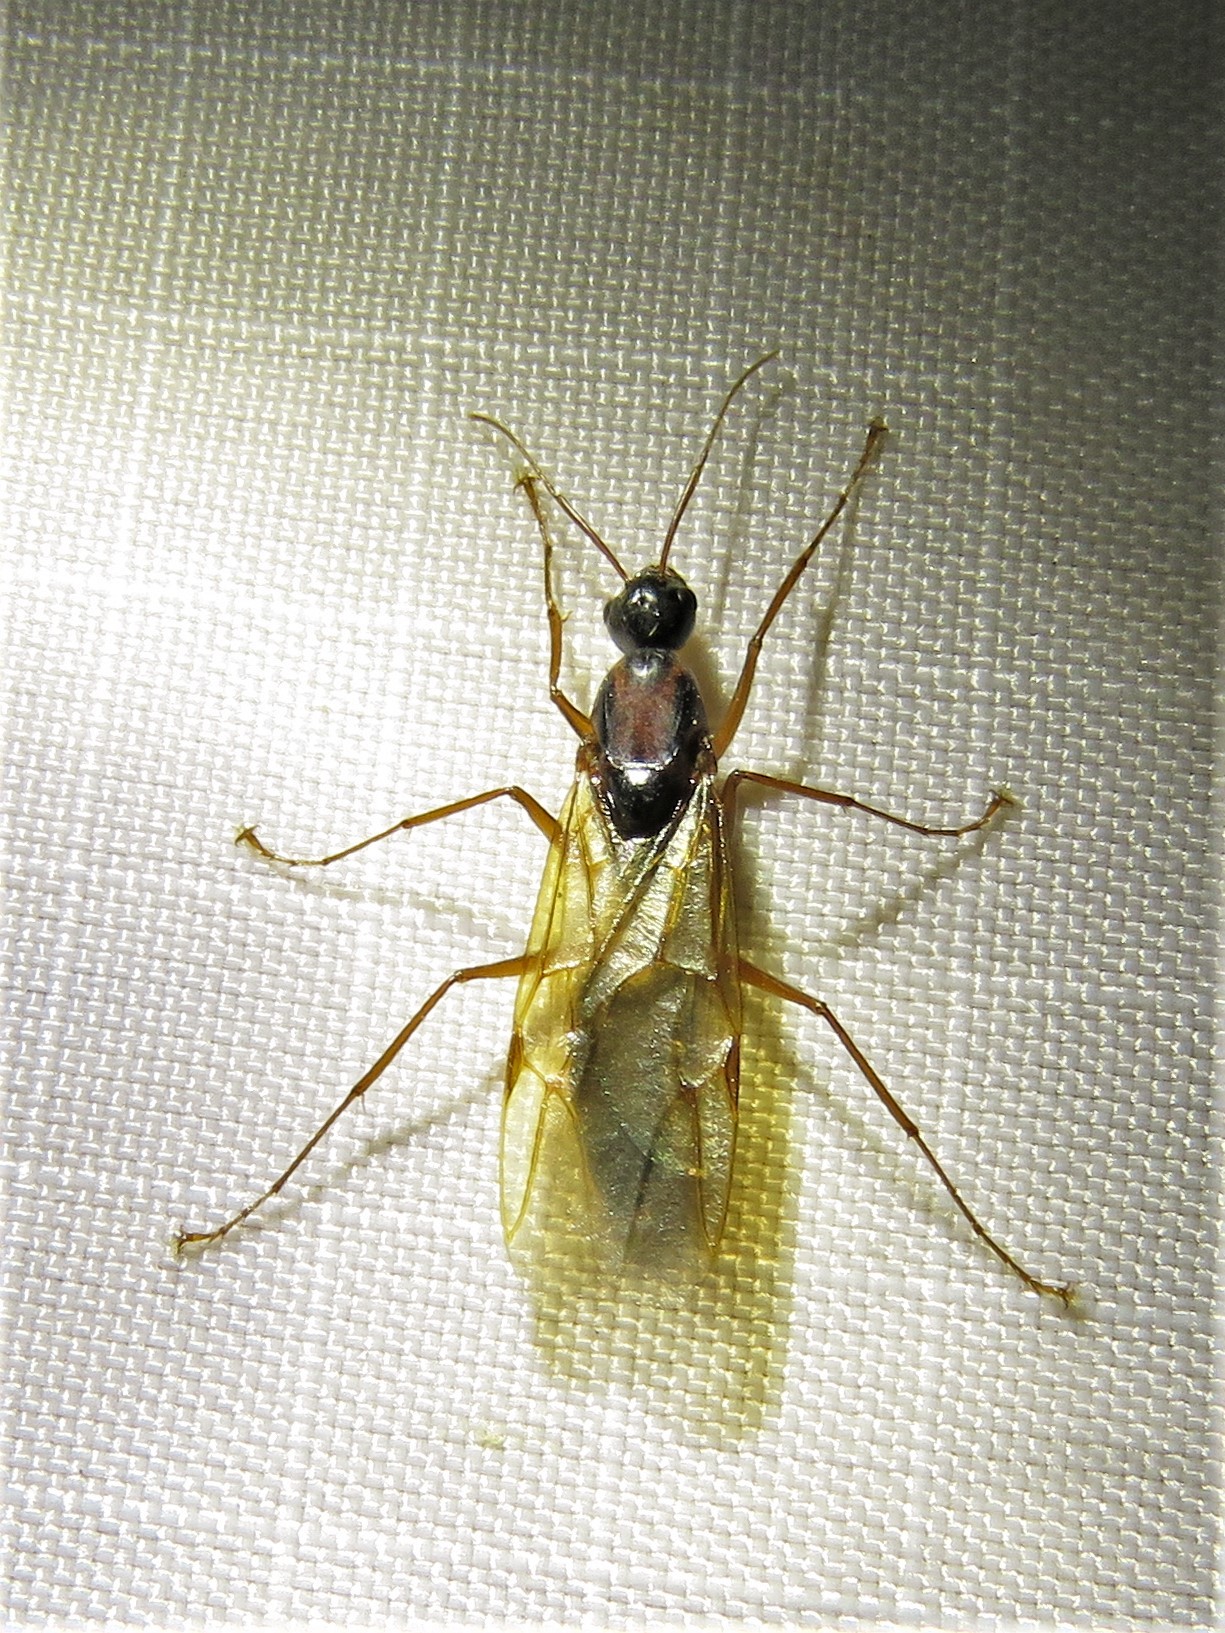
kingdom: Animalia
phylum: Arthropoda
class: Insecta
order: Hymenoptera
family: Formicidae
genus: Camponotus
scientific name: Camponotus texanus
